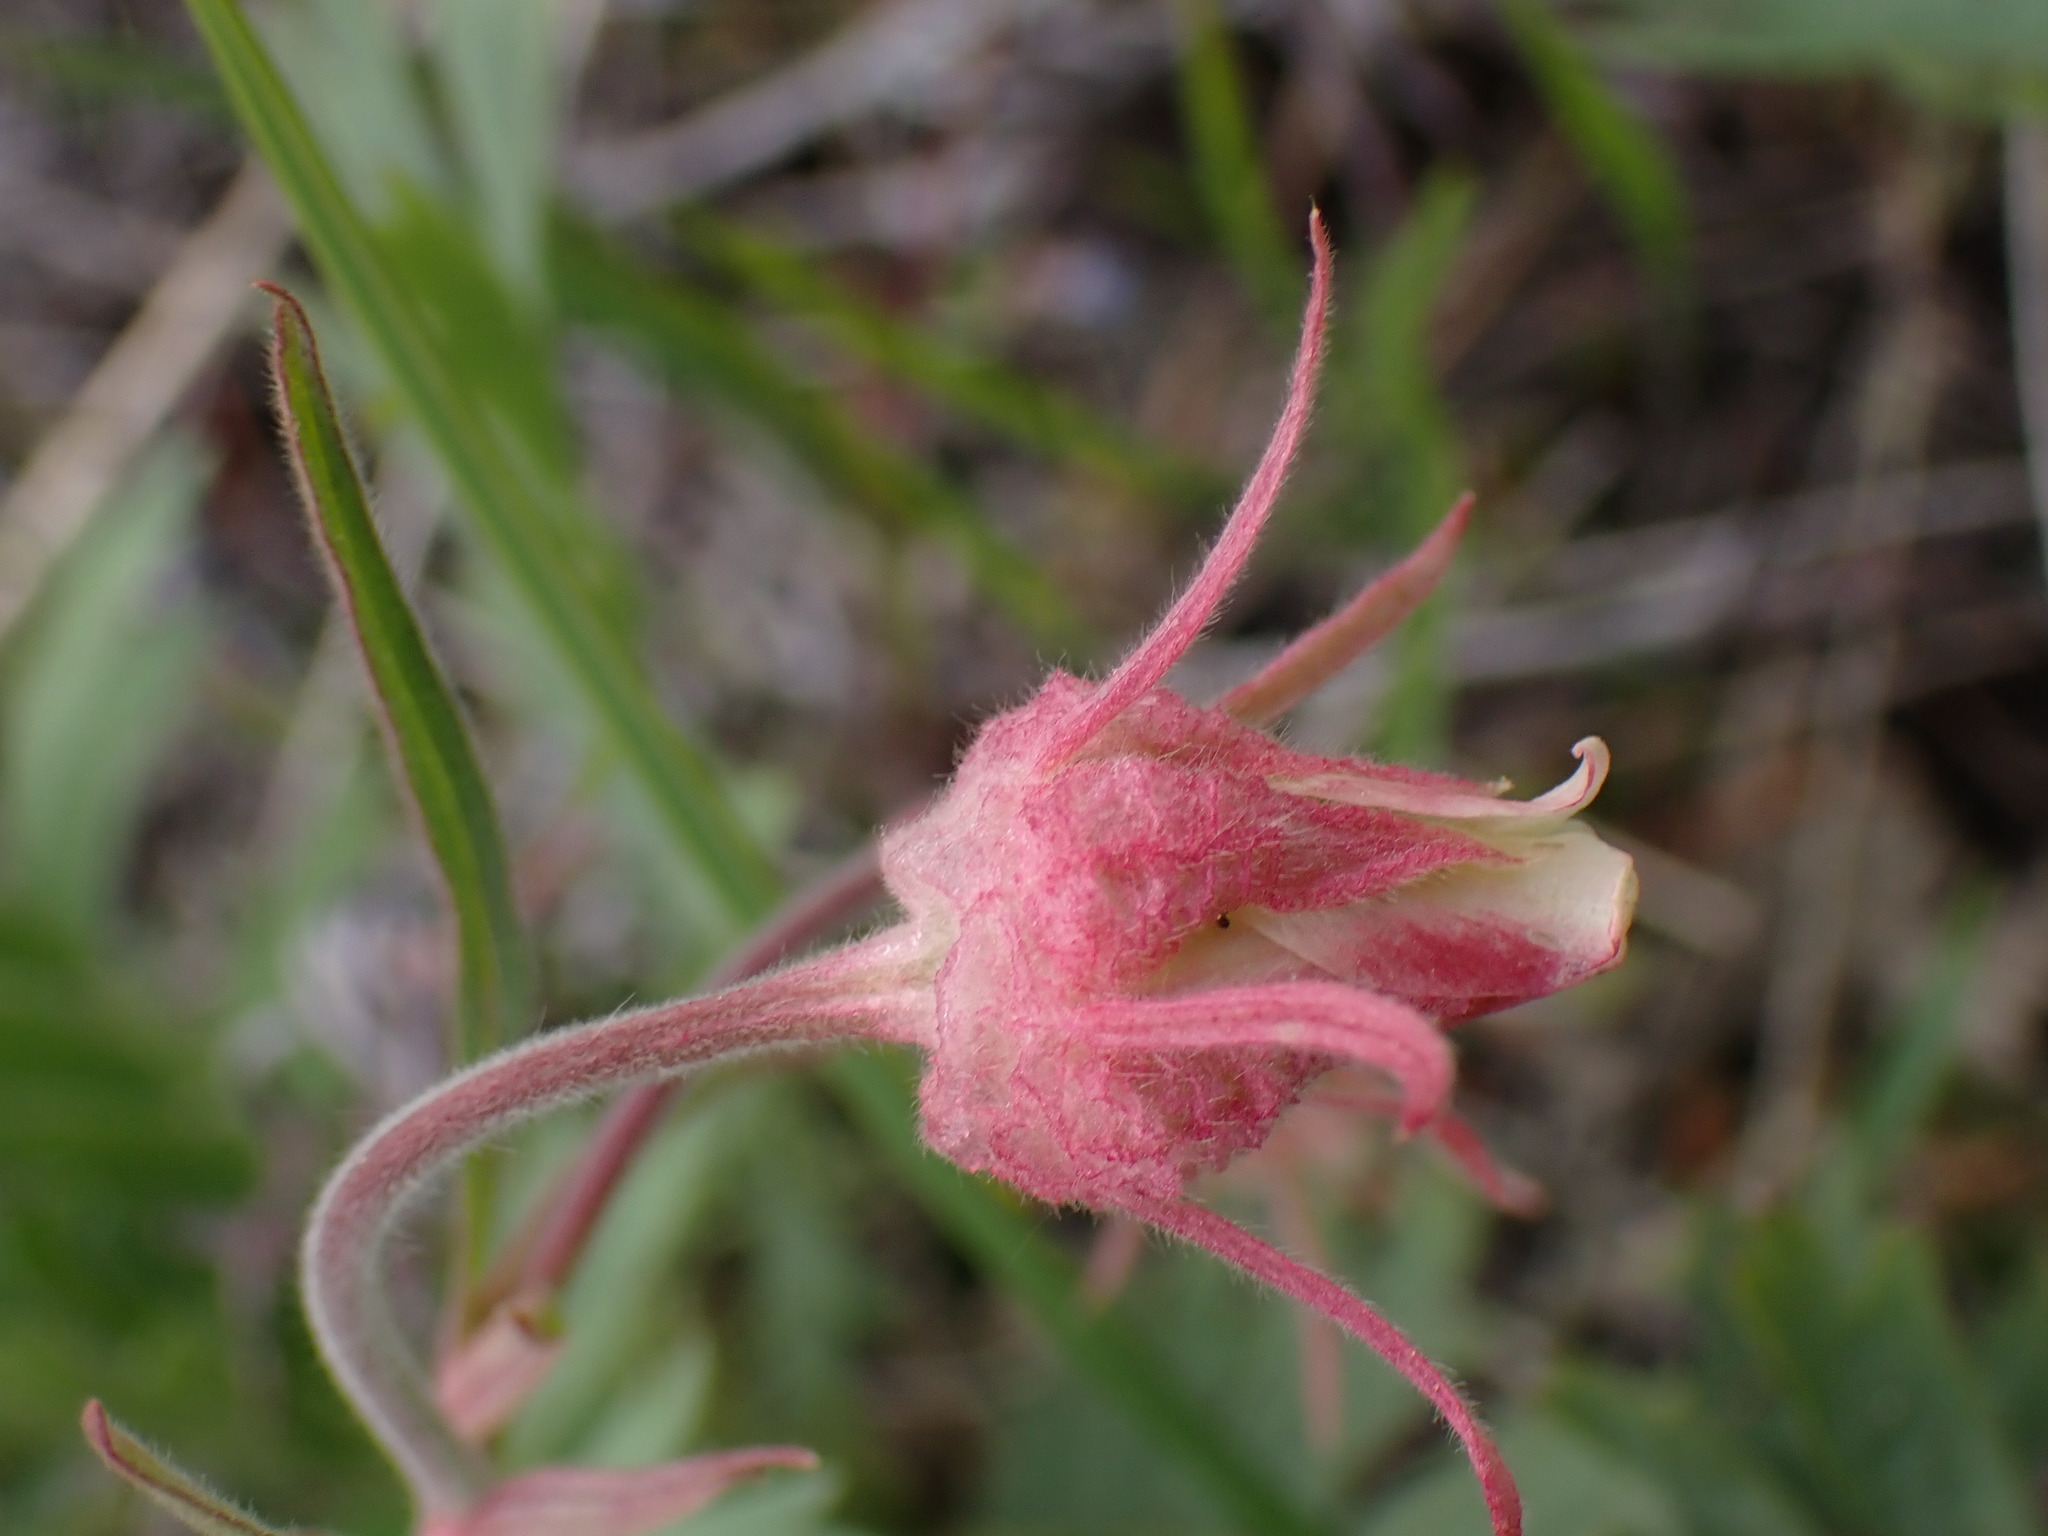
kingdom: Plantae
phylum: Tracheophyta
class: Magnoliopsida
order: Rosales
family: Rosaceae
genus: Geum
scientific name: Geum triflorum
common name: Old man's whiskers
